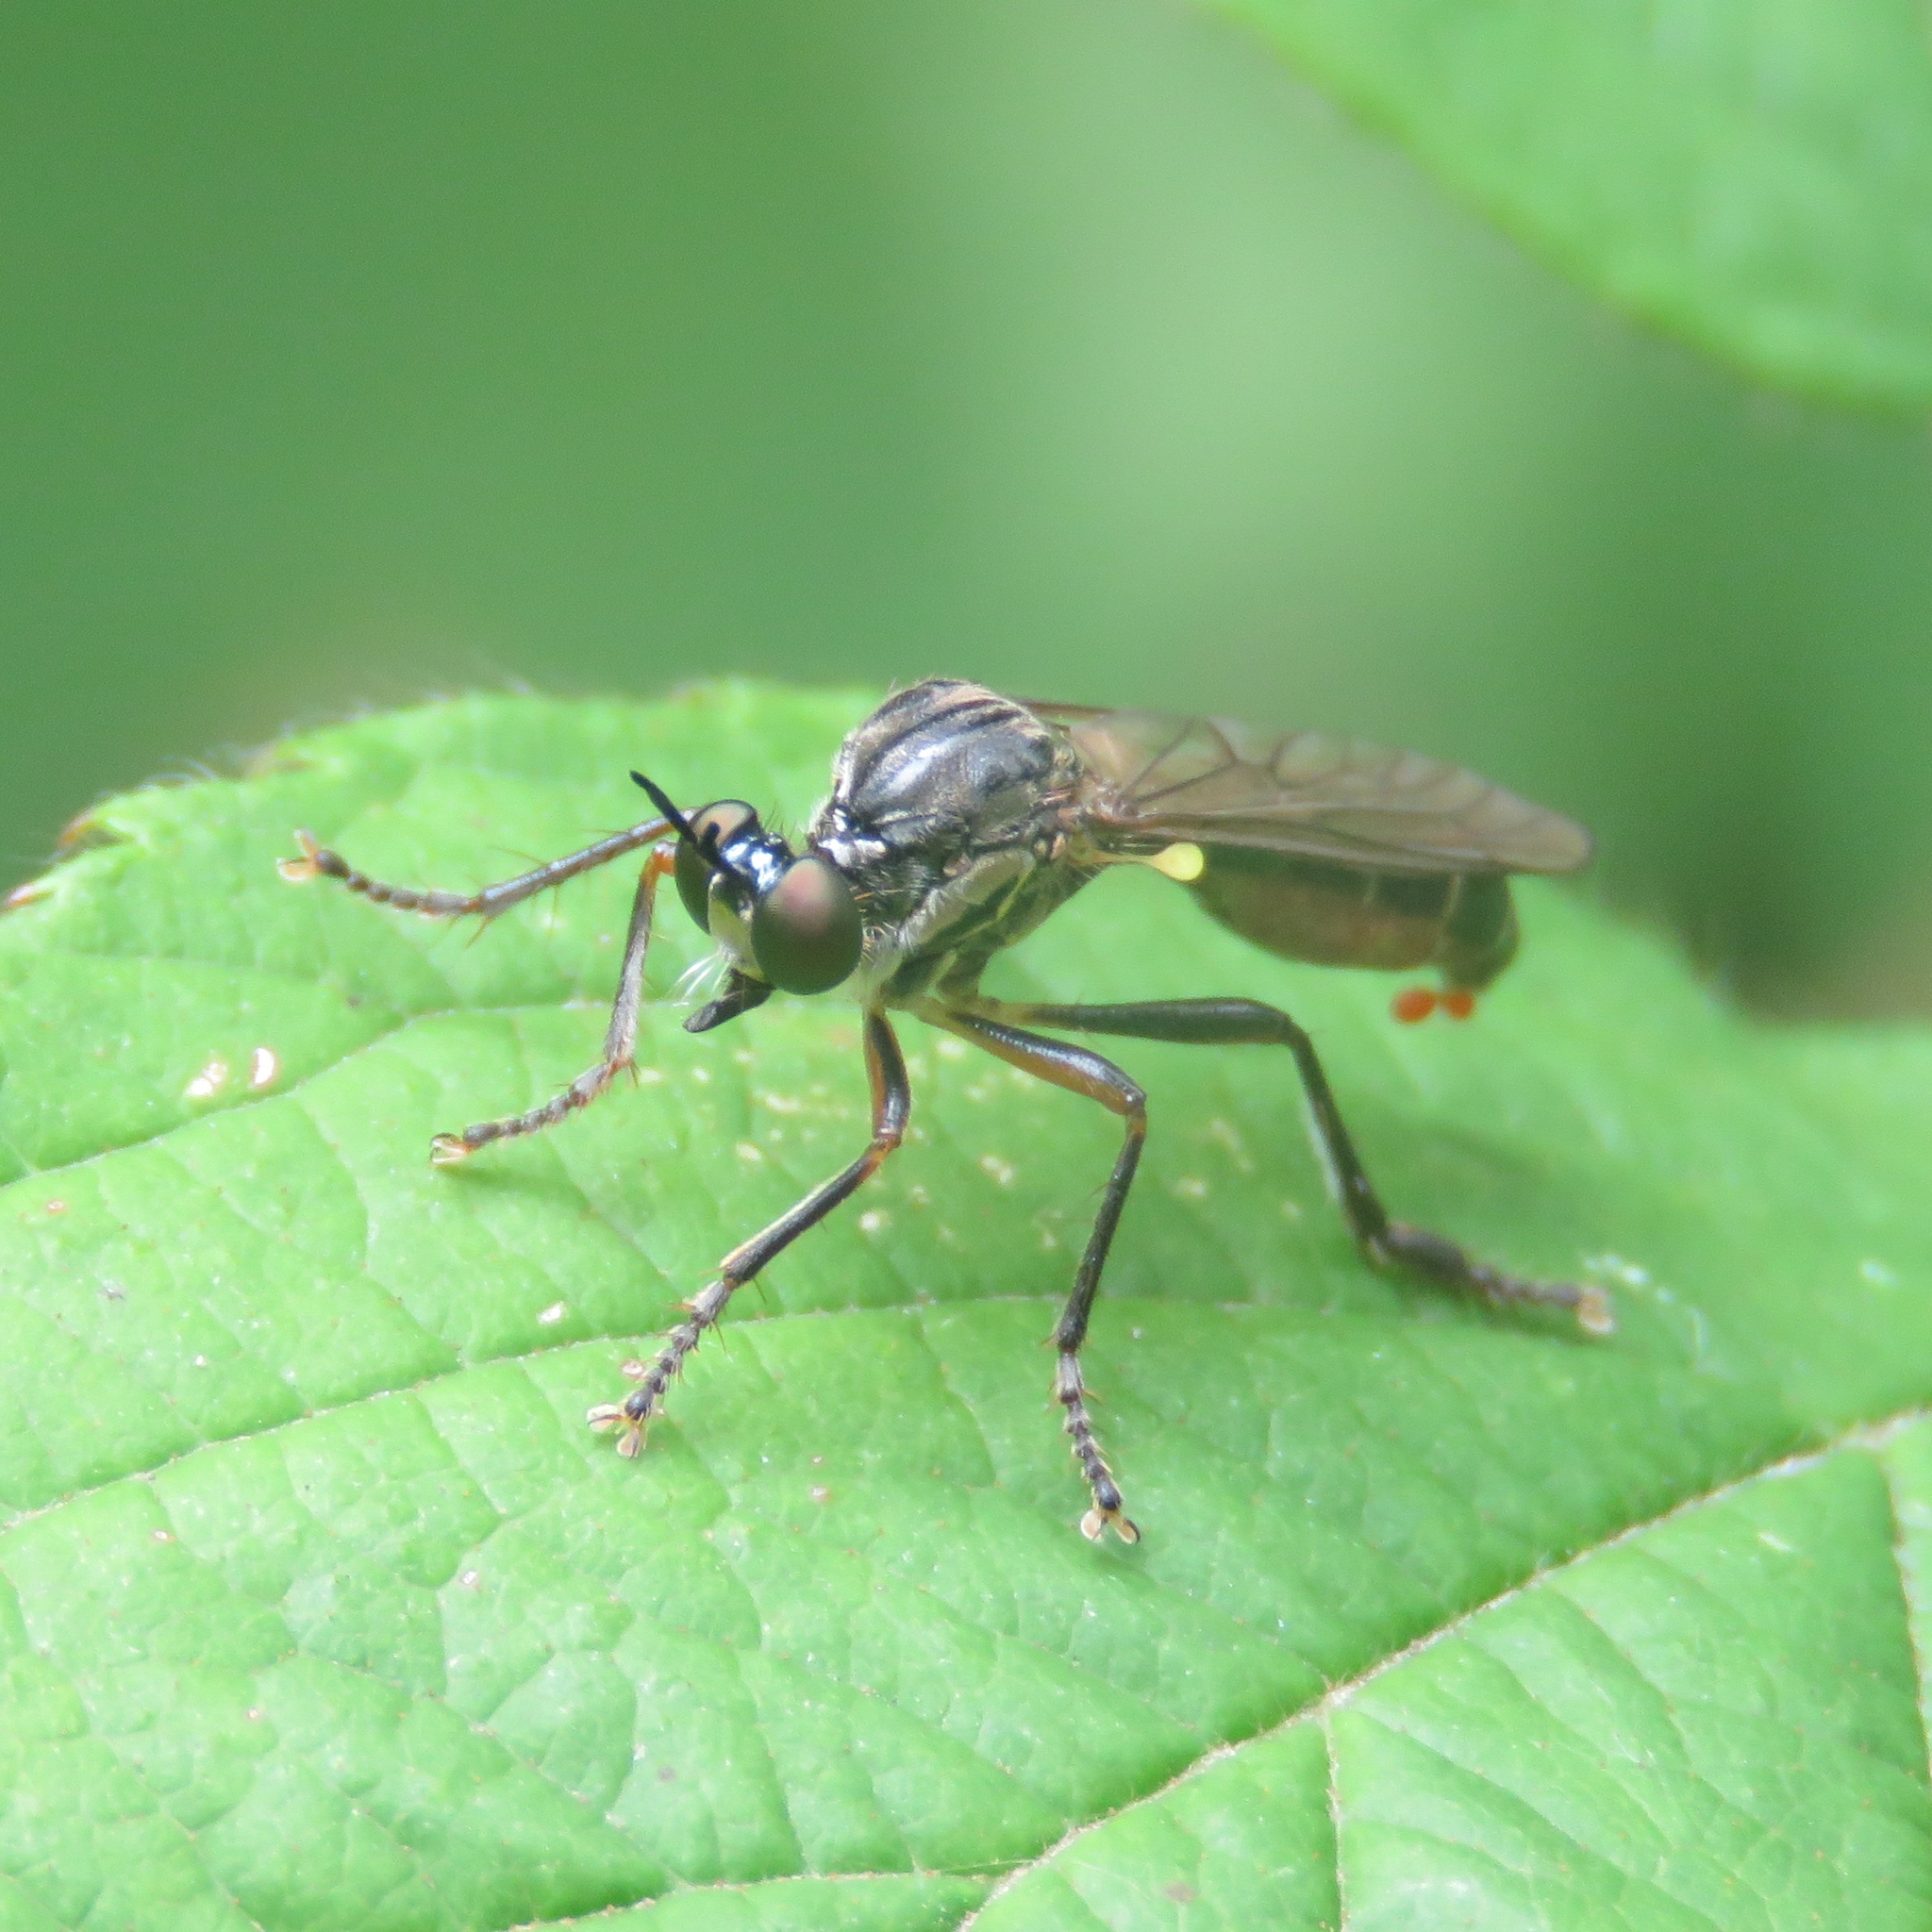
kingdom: Animalia
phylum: Arthropoda
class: Insecta
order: Diptera
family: Asilidae
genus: Dioctria
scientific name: Dioctria hyalipennis
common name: Stripe-legged robberfly
